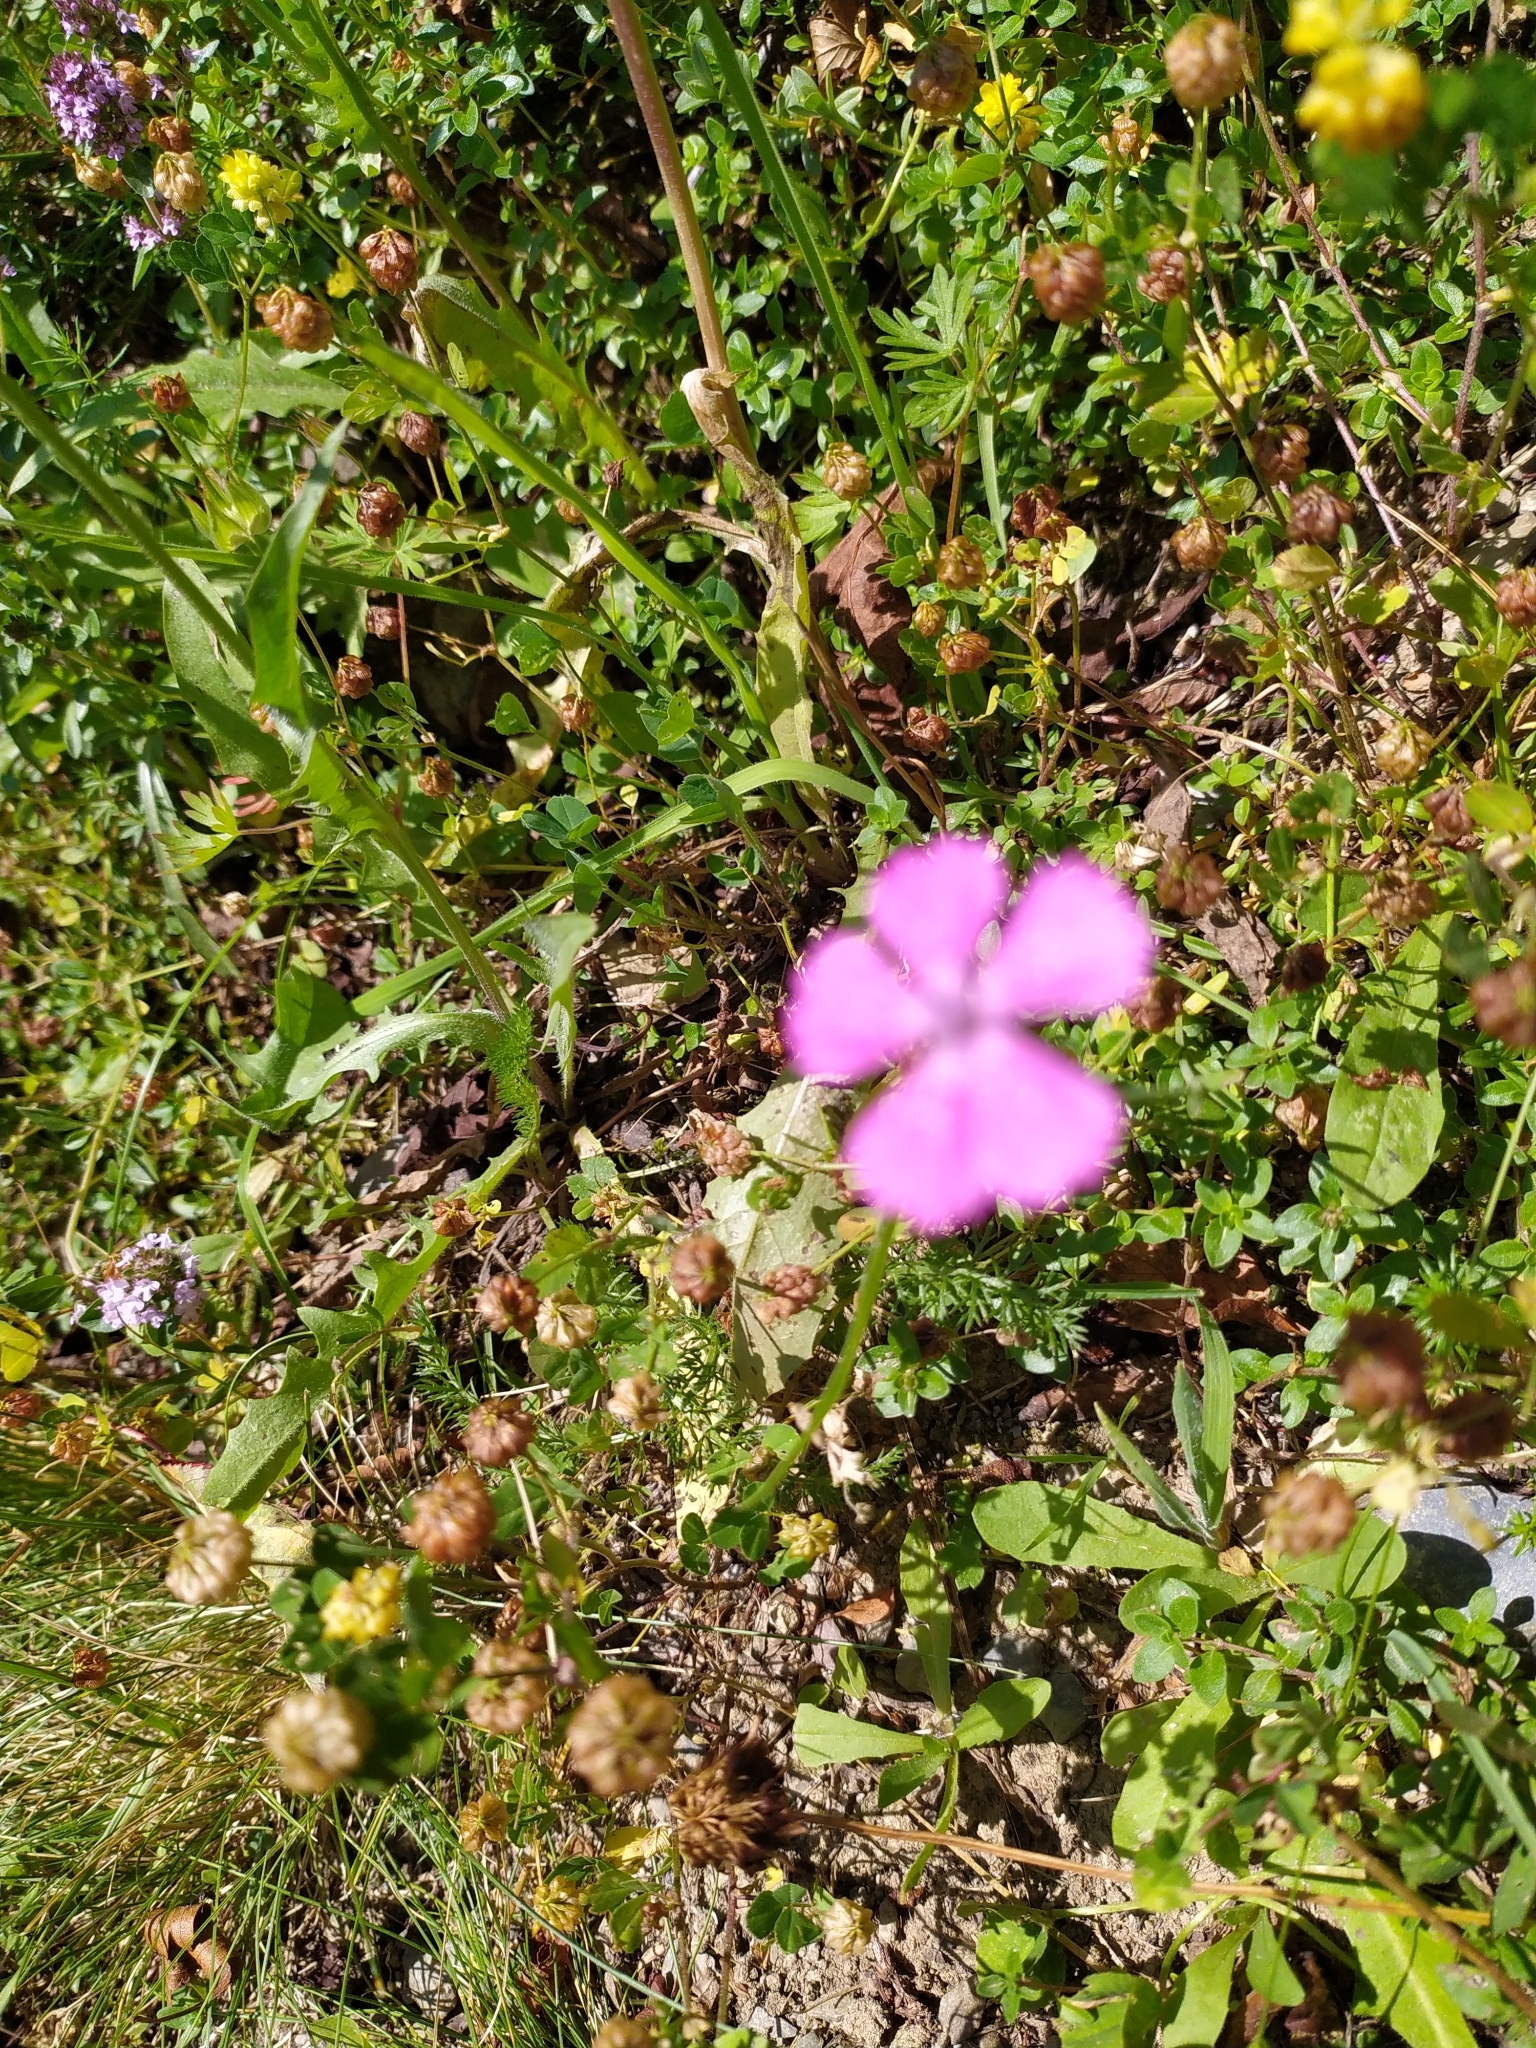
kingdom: Plantae
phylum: Tracheophyta
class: Magnoliopsida
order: Caryophyllales
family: Caryophyllaceae
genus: Dianthus
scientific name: Dianthus deltoides
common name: Maiden pink
